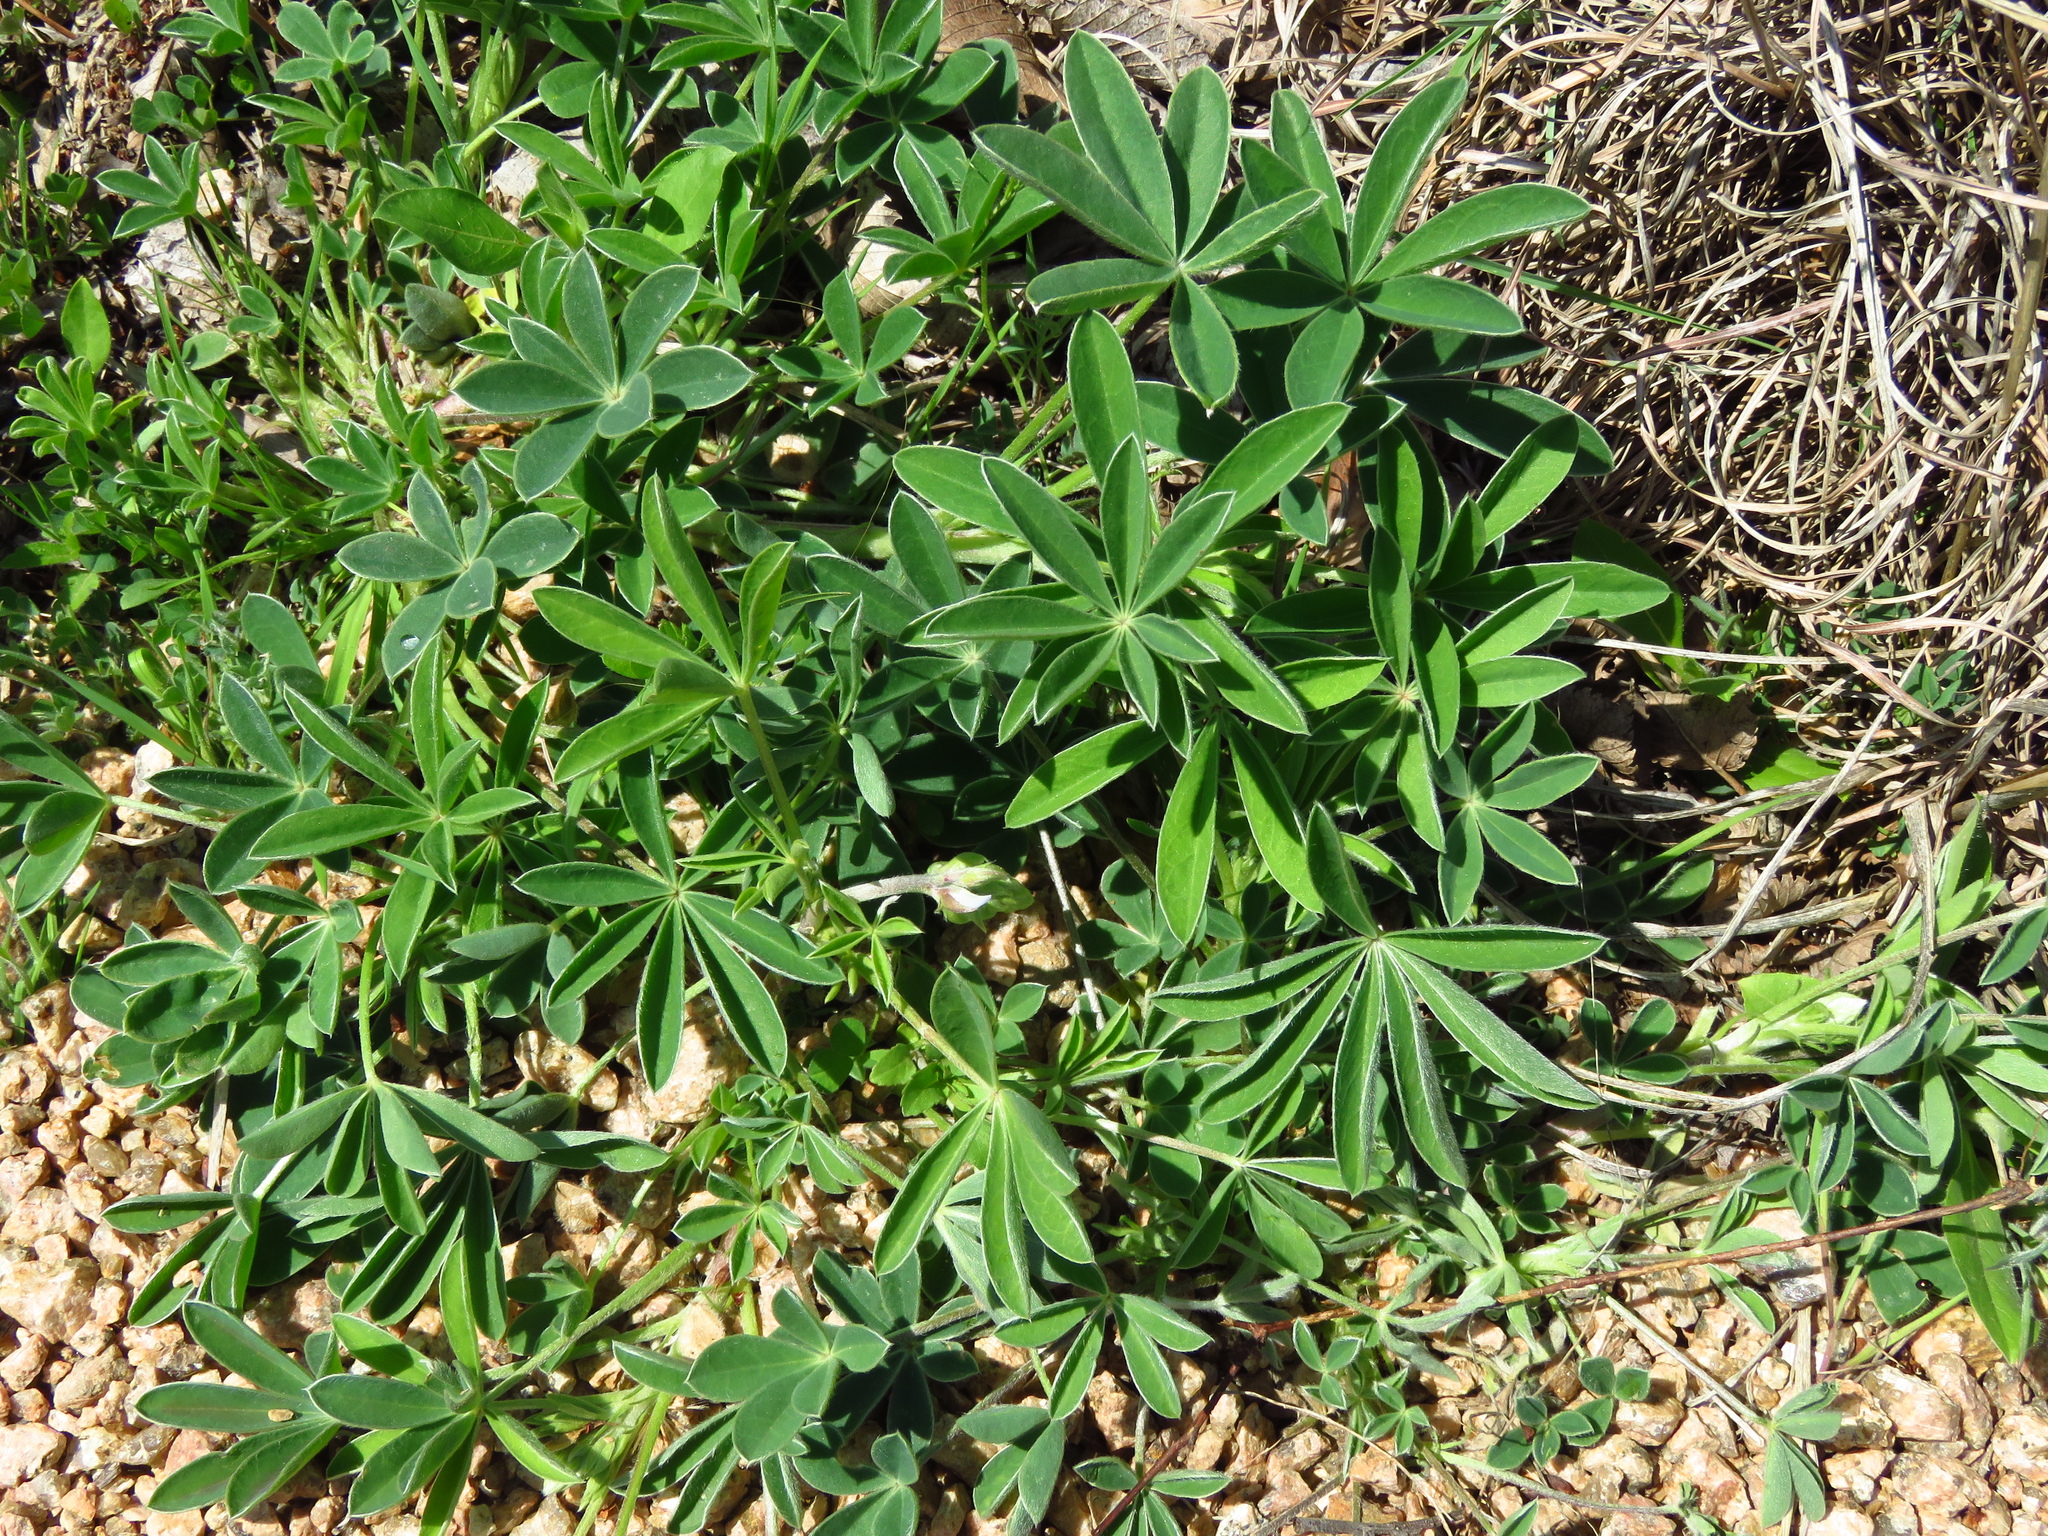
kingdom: Plantae
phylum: Tracheophyta
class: Magnoliopsida
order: Fabales
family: Fabaceae
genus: Lupinus
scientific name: Lupinus texensis
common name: Texas bluebonnet
